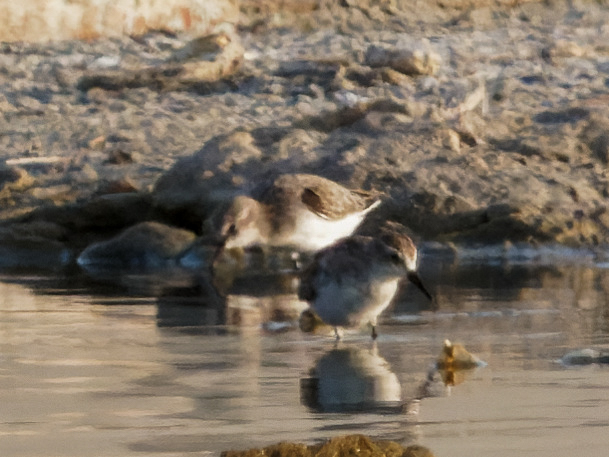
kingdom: Animalia
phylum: Chordata
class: Aves
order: Charadriiformes
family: Scolopacidae
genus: Calidris
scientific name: Calidris minuta
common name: Little stint
